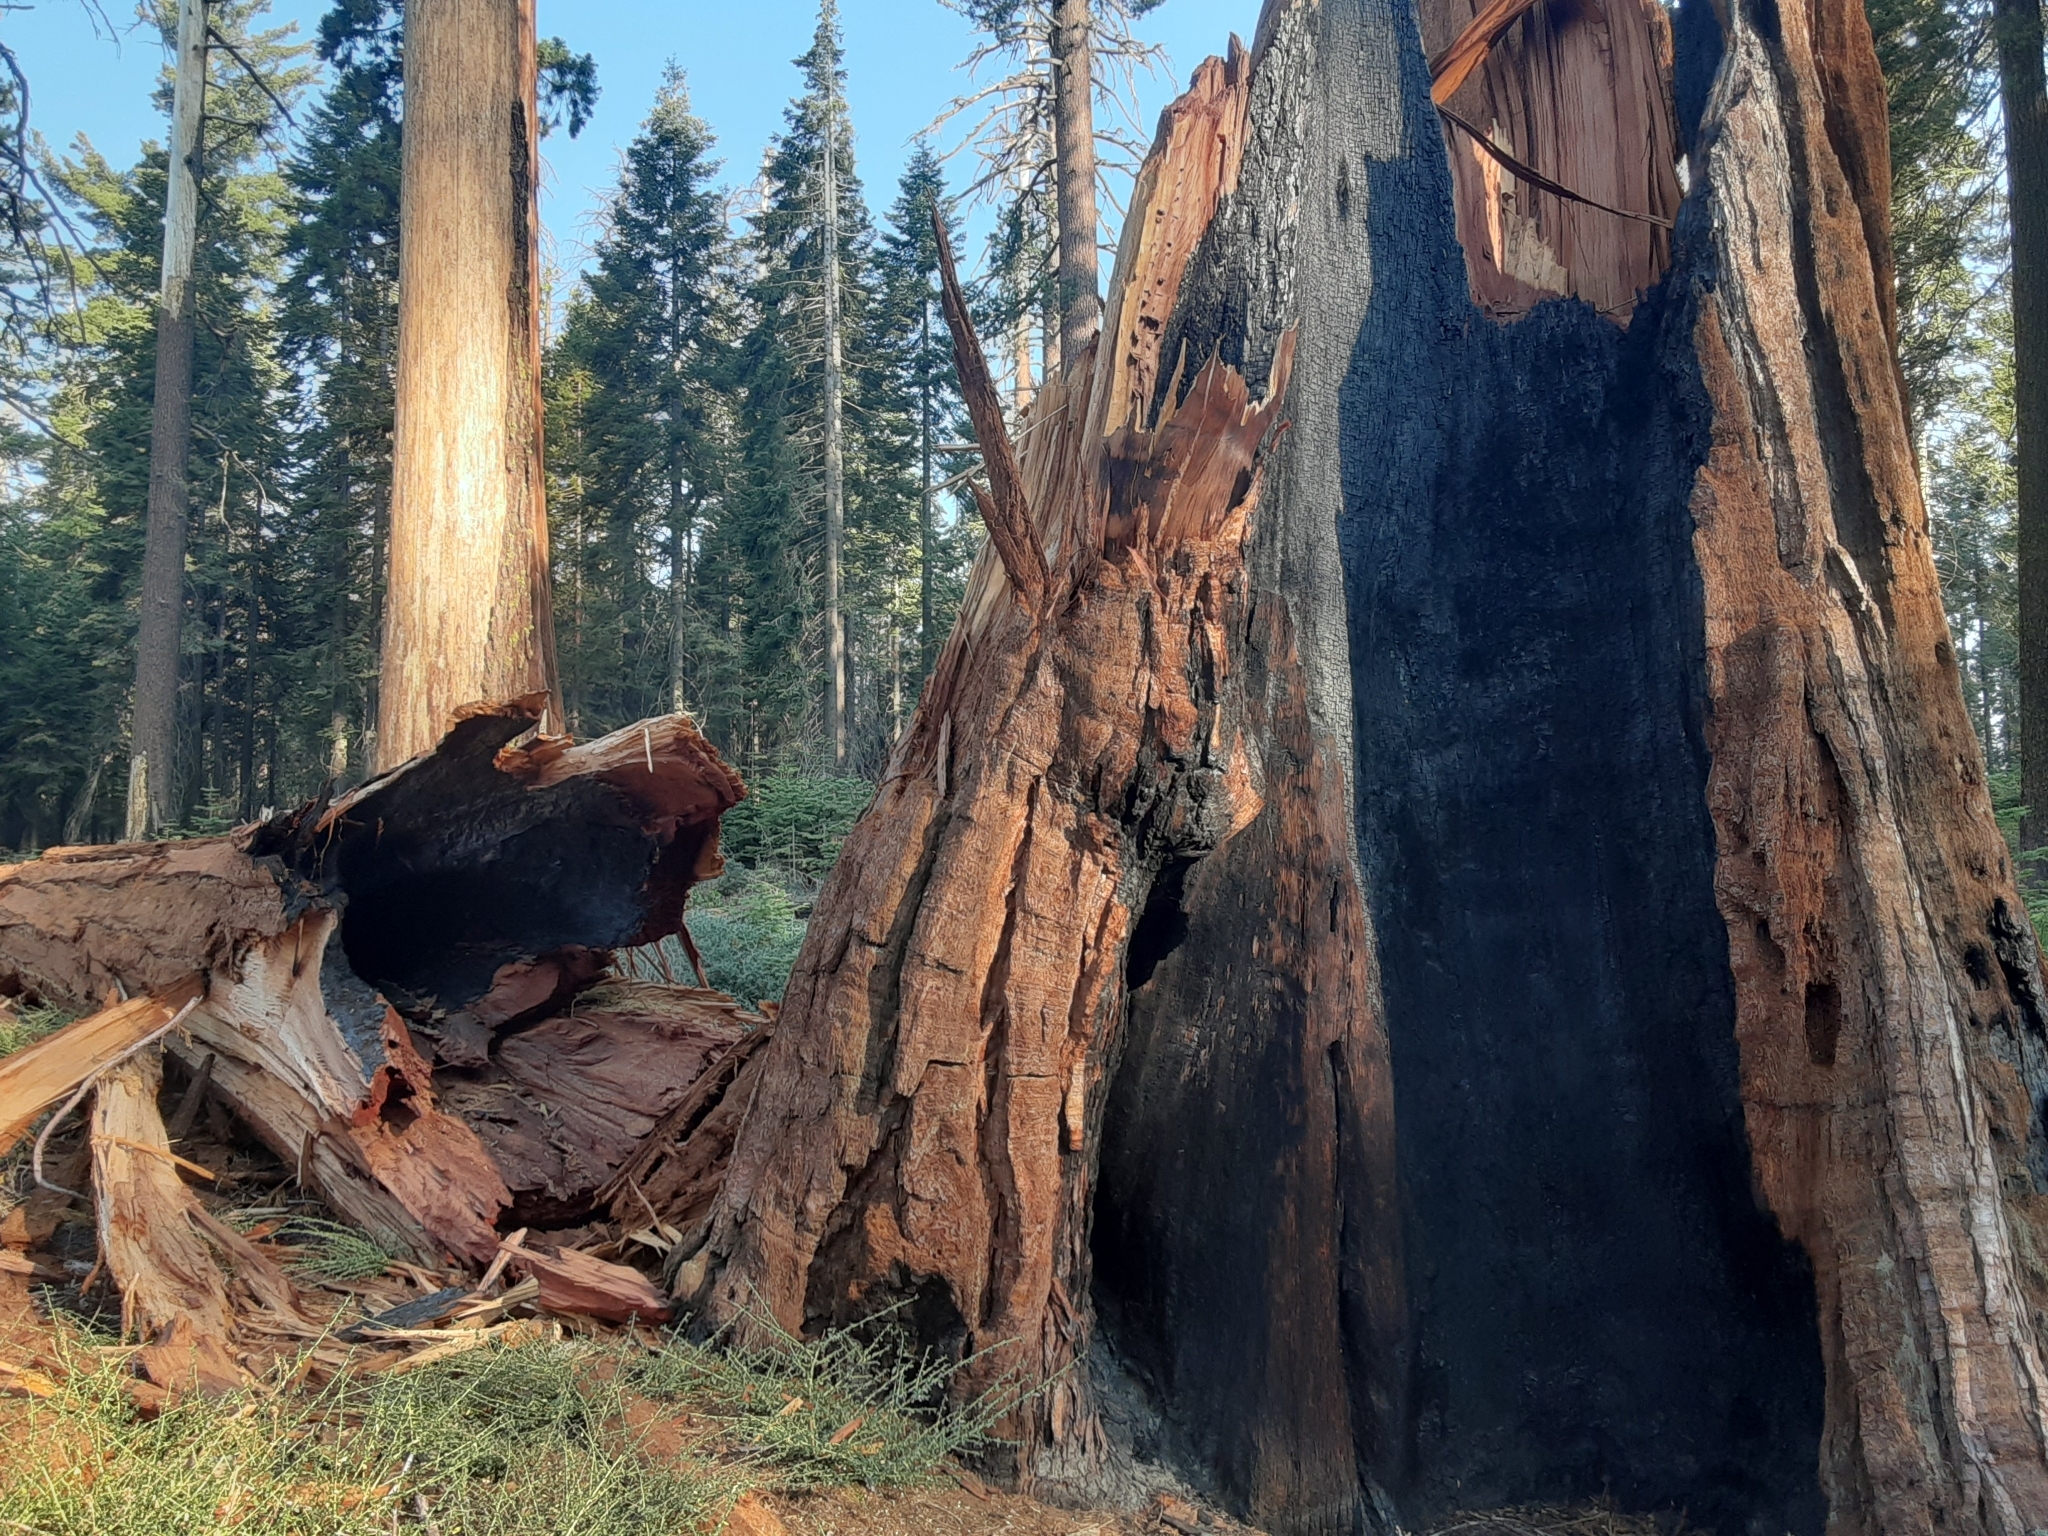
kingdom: Plantae
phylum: Tracheophyta
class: Pinopsida
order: Pinales
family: Cupressaceae
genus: Sequoiadendron
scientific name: Sequoiadendron giganteum
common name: Wellingtonia
